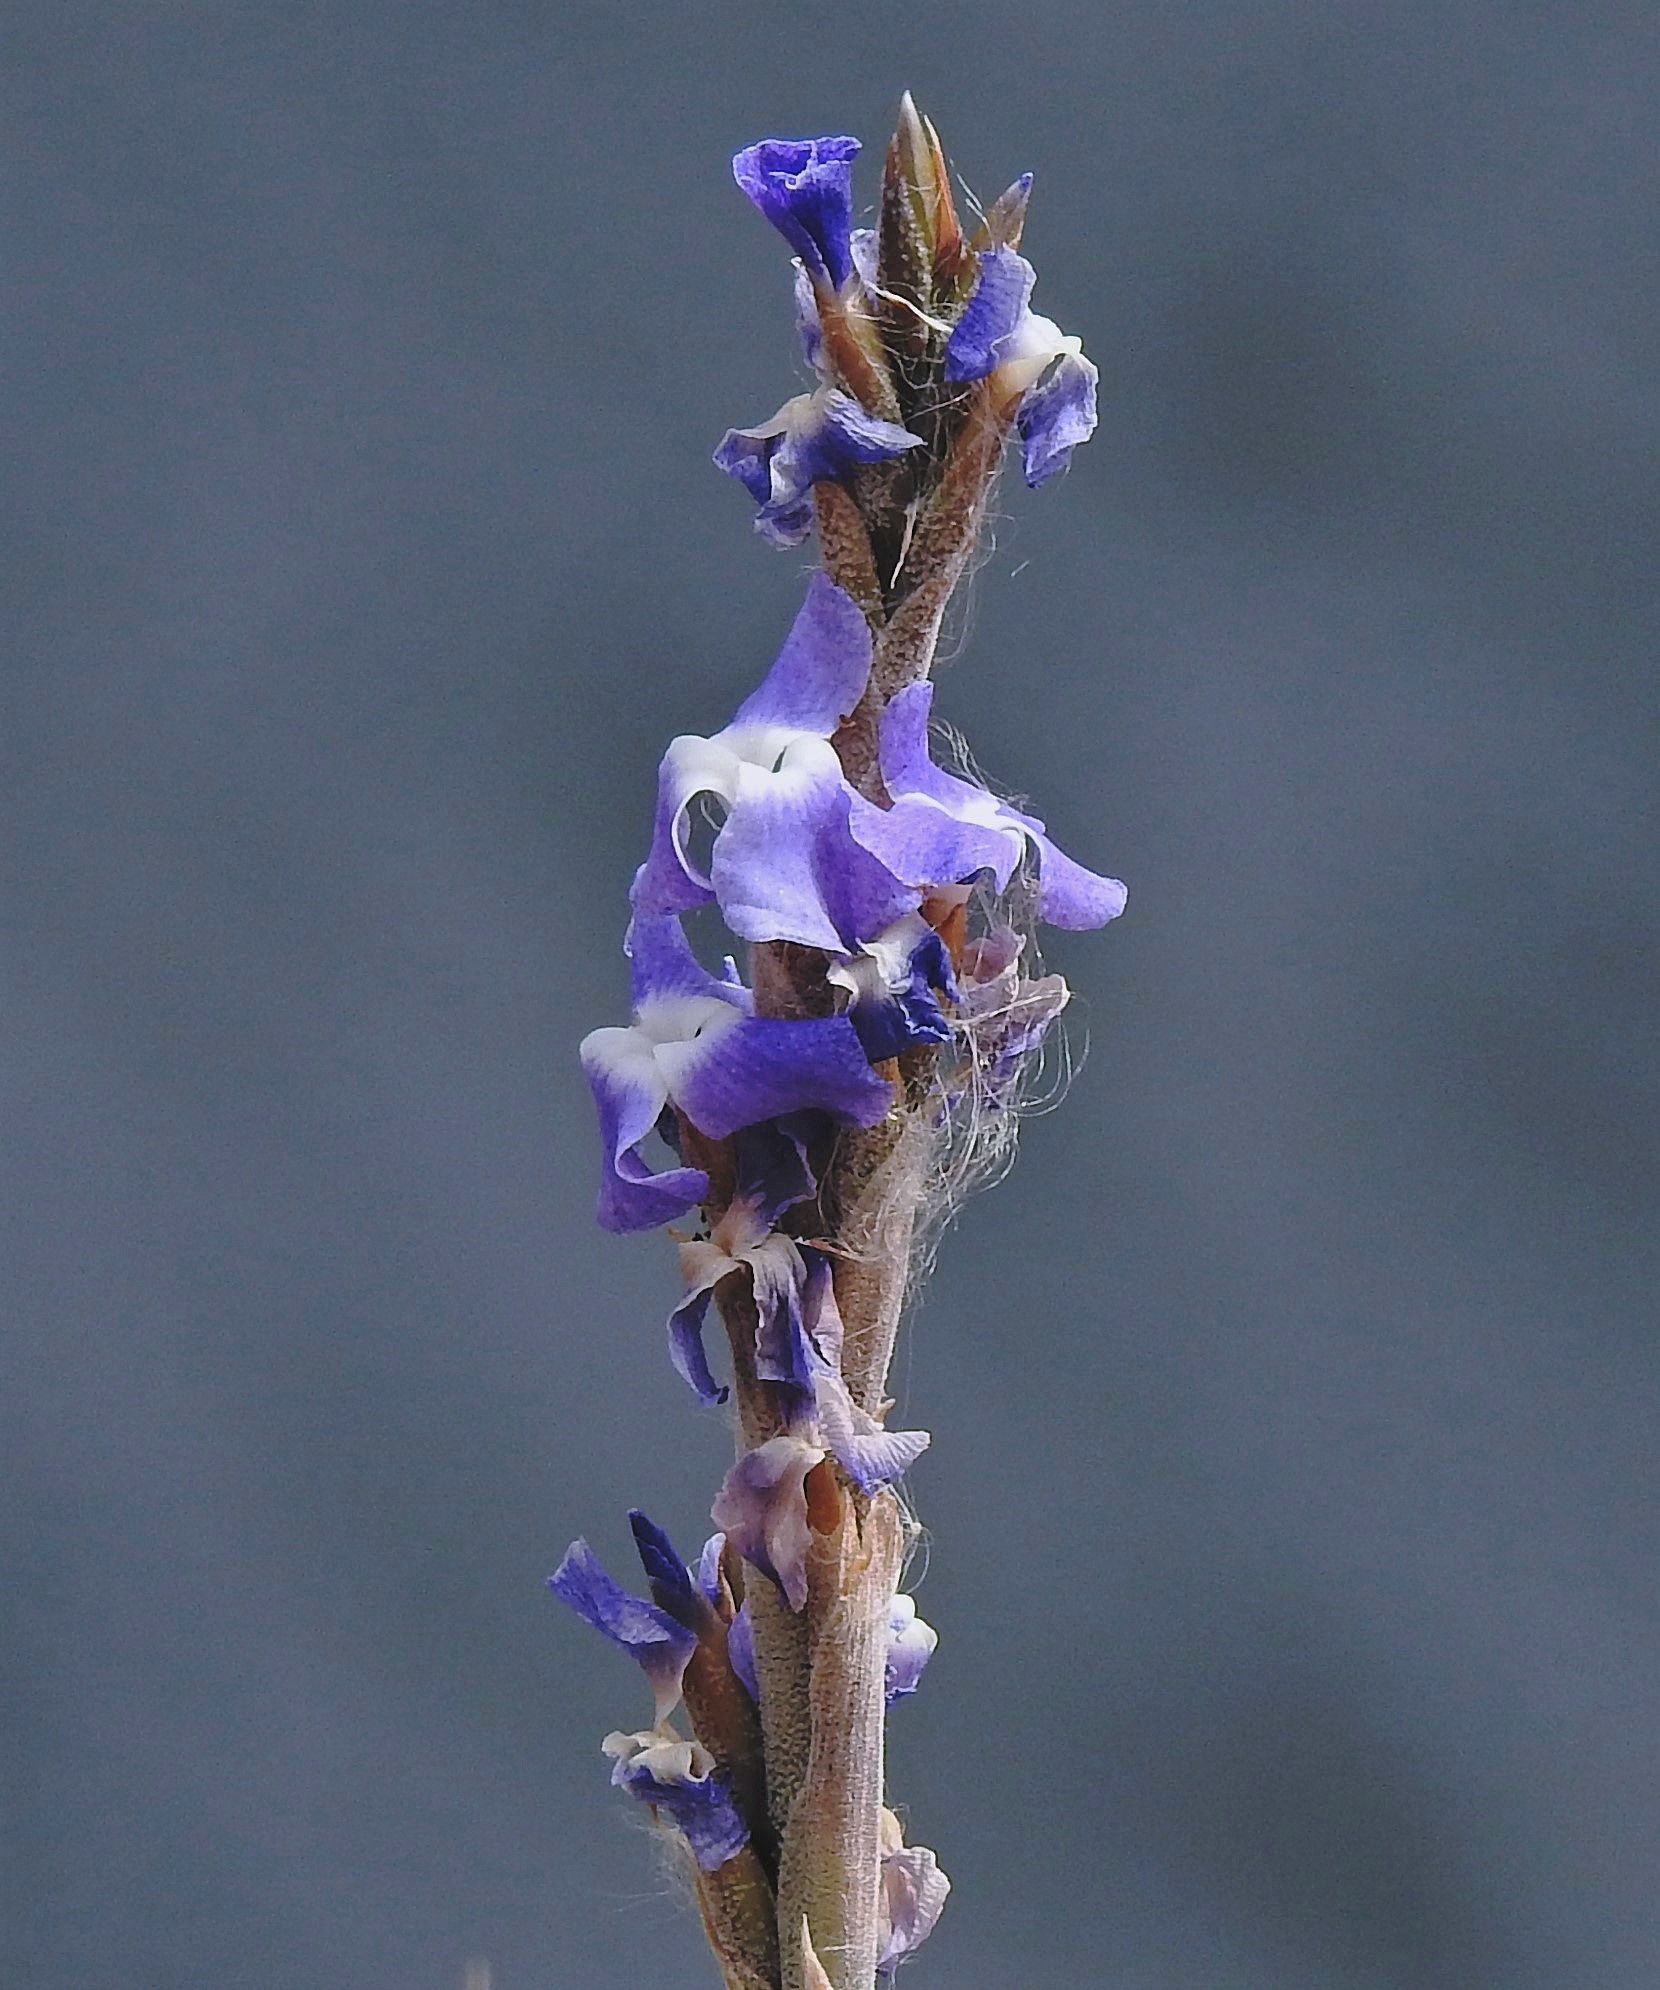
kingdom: Plantae
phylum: Tracheophyta
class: Liliopsida
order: Poales
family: Bromeliaceae
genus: Tillandsia
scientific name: Tillandsia duratii
